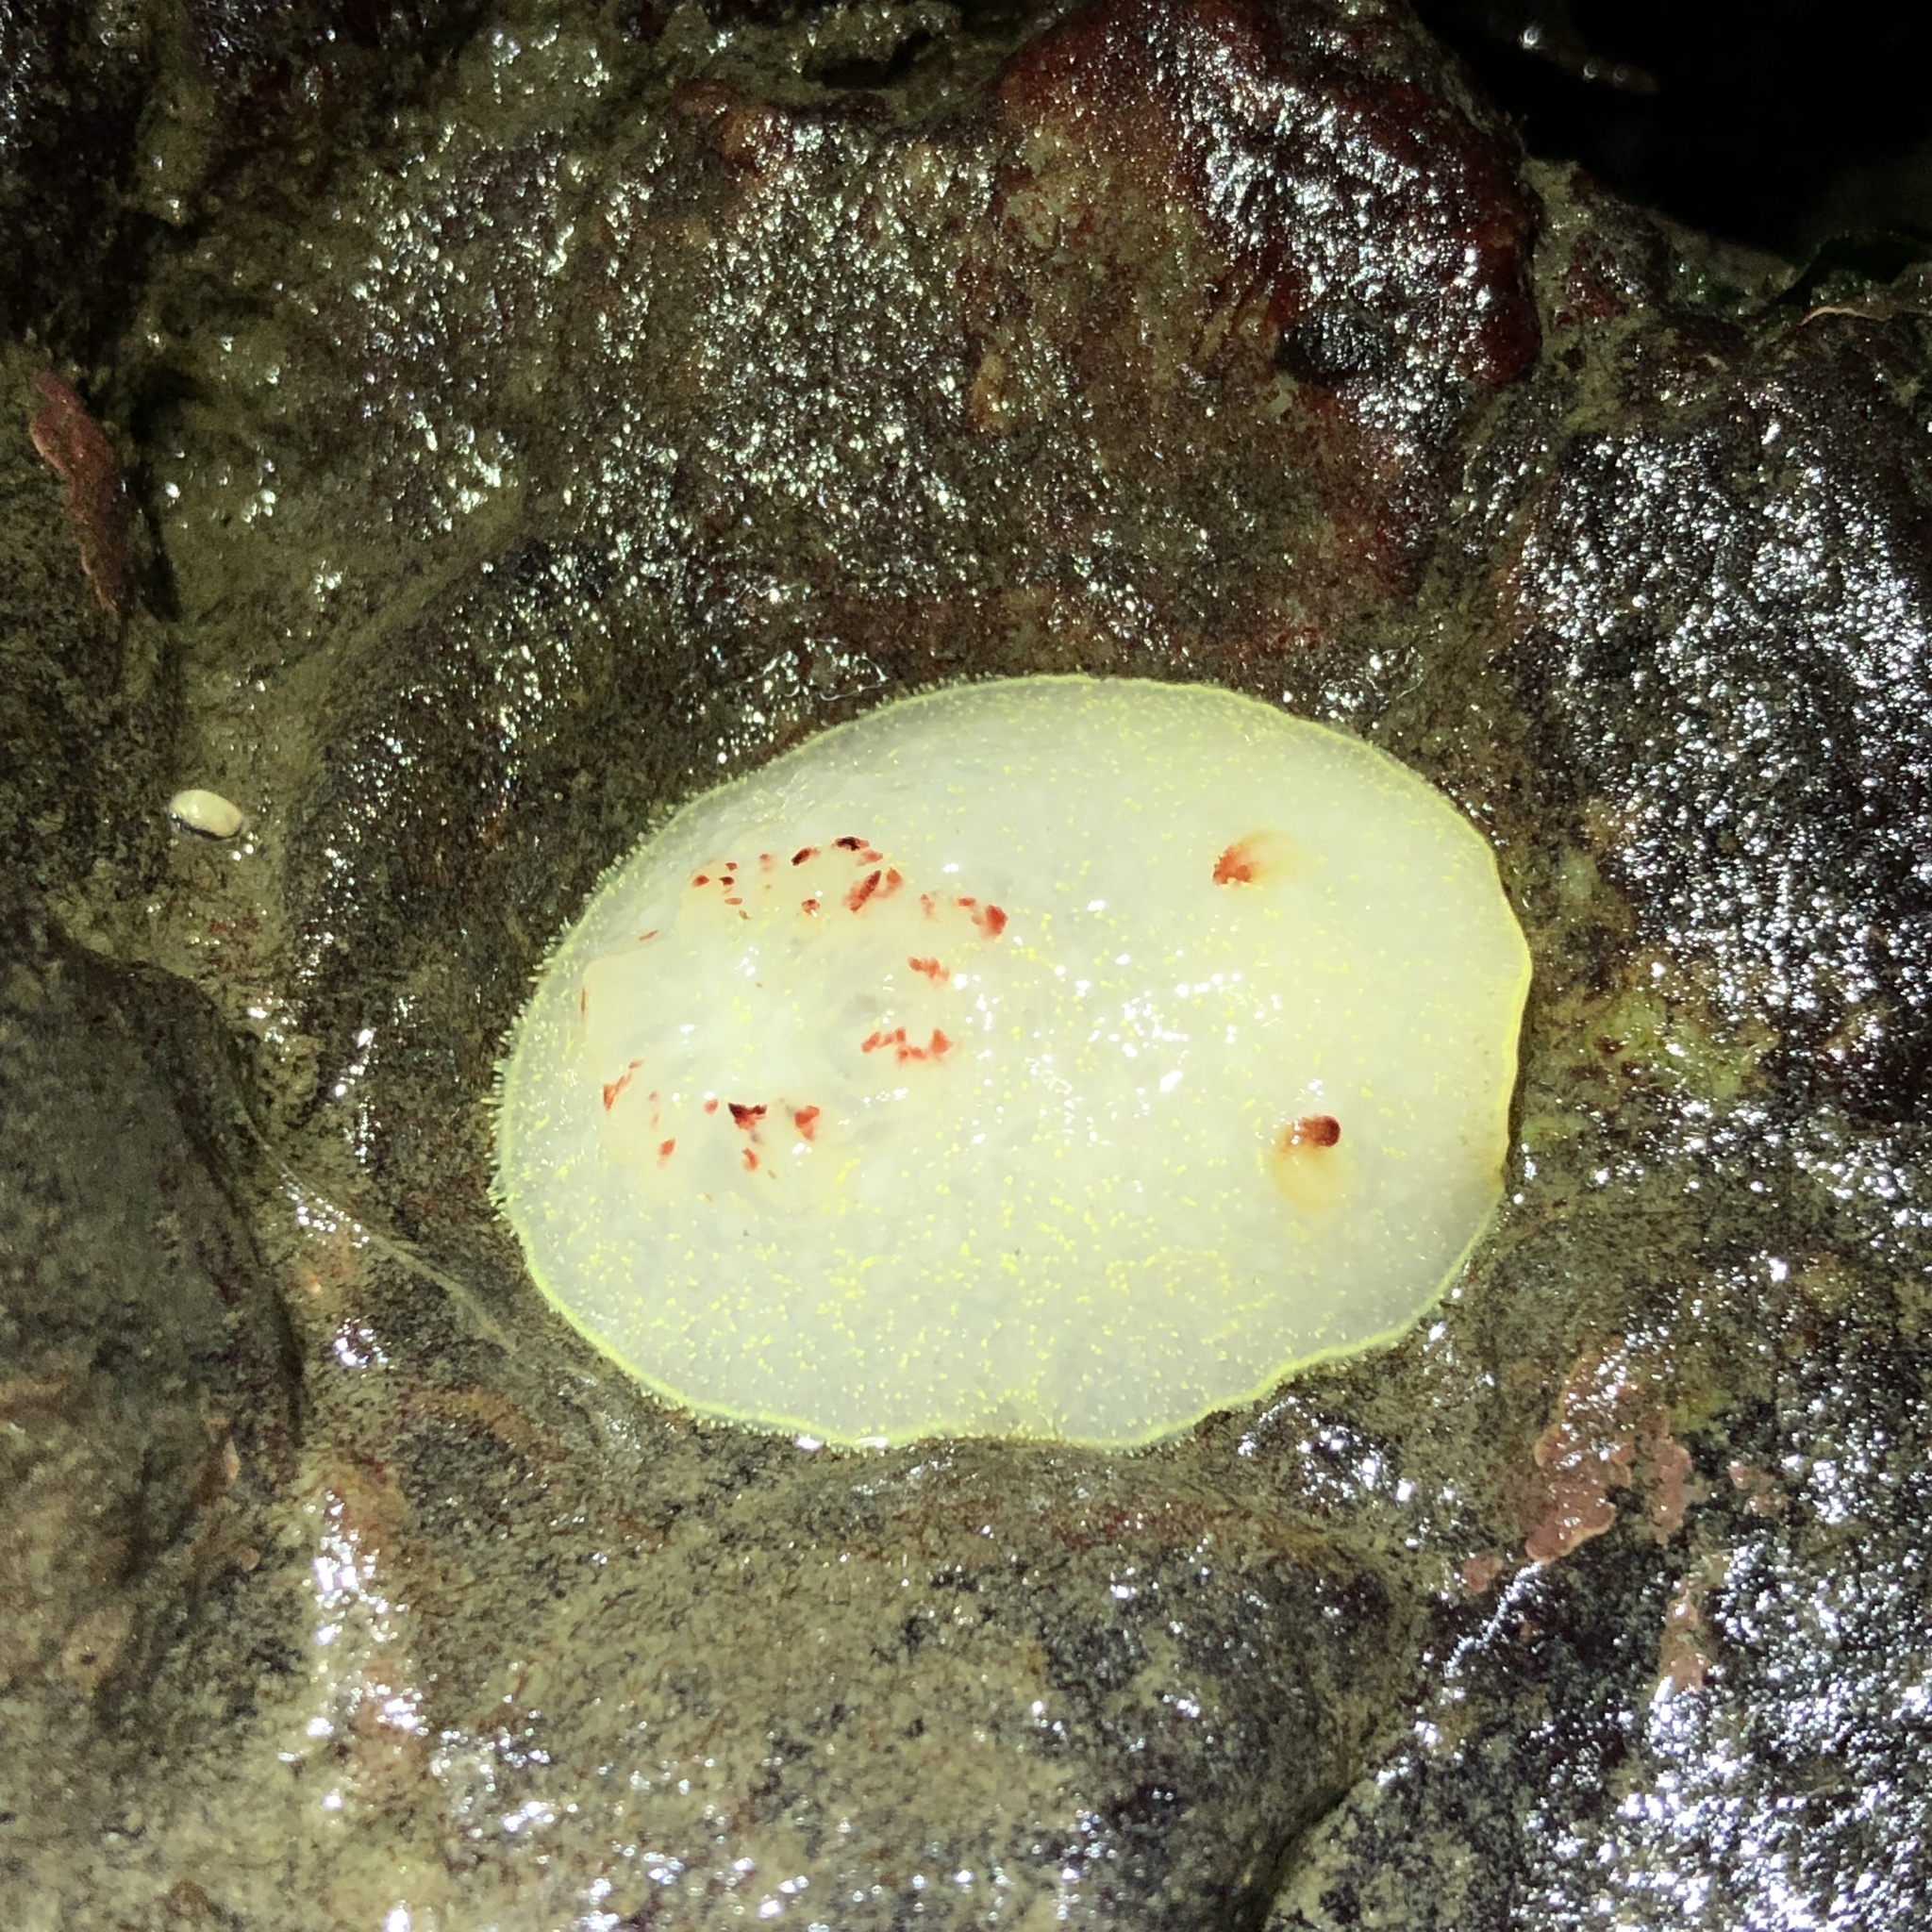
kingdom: Animalia
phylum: Mollusca
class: Gastropoda
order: Nudibranchia
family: Onchidorididae
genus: Acanthodoris
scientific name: Acanthodoris nanaimoensis
